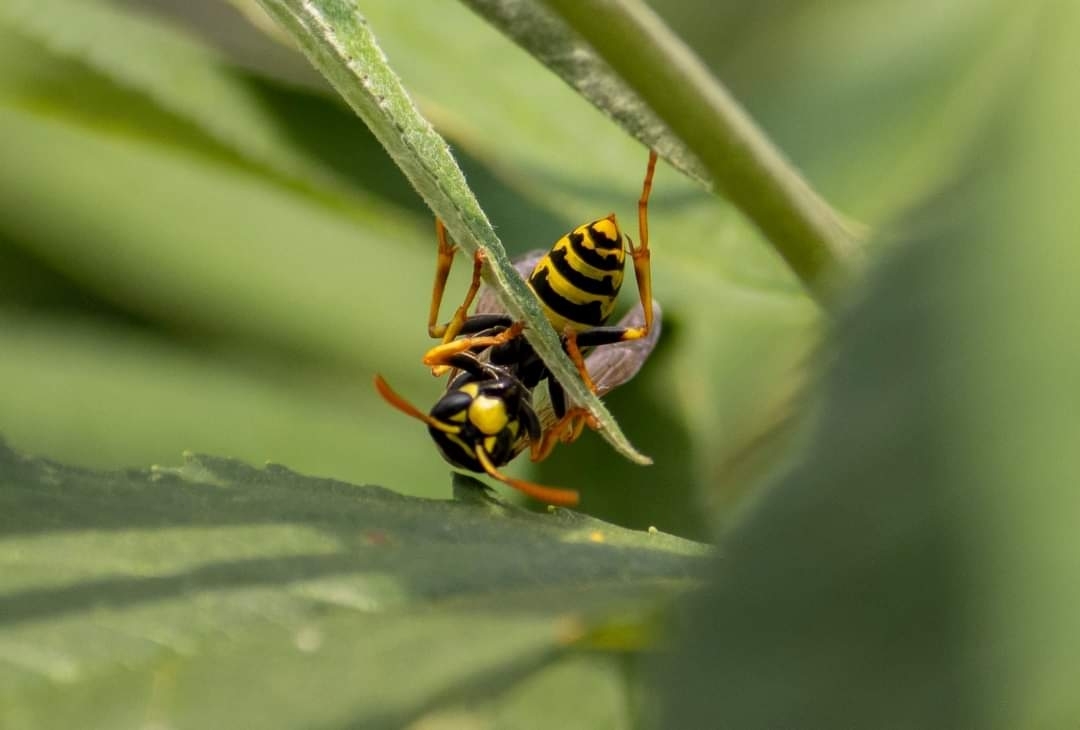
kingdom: Animalia
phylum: Arthropoda
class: Insecta
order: Hymenoptera
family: Eumenidae
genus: Polistes
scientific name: Polistes dominula
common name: Paper wasp
